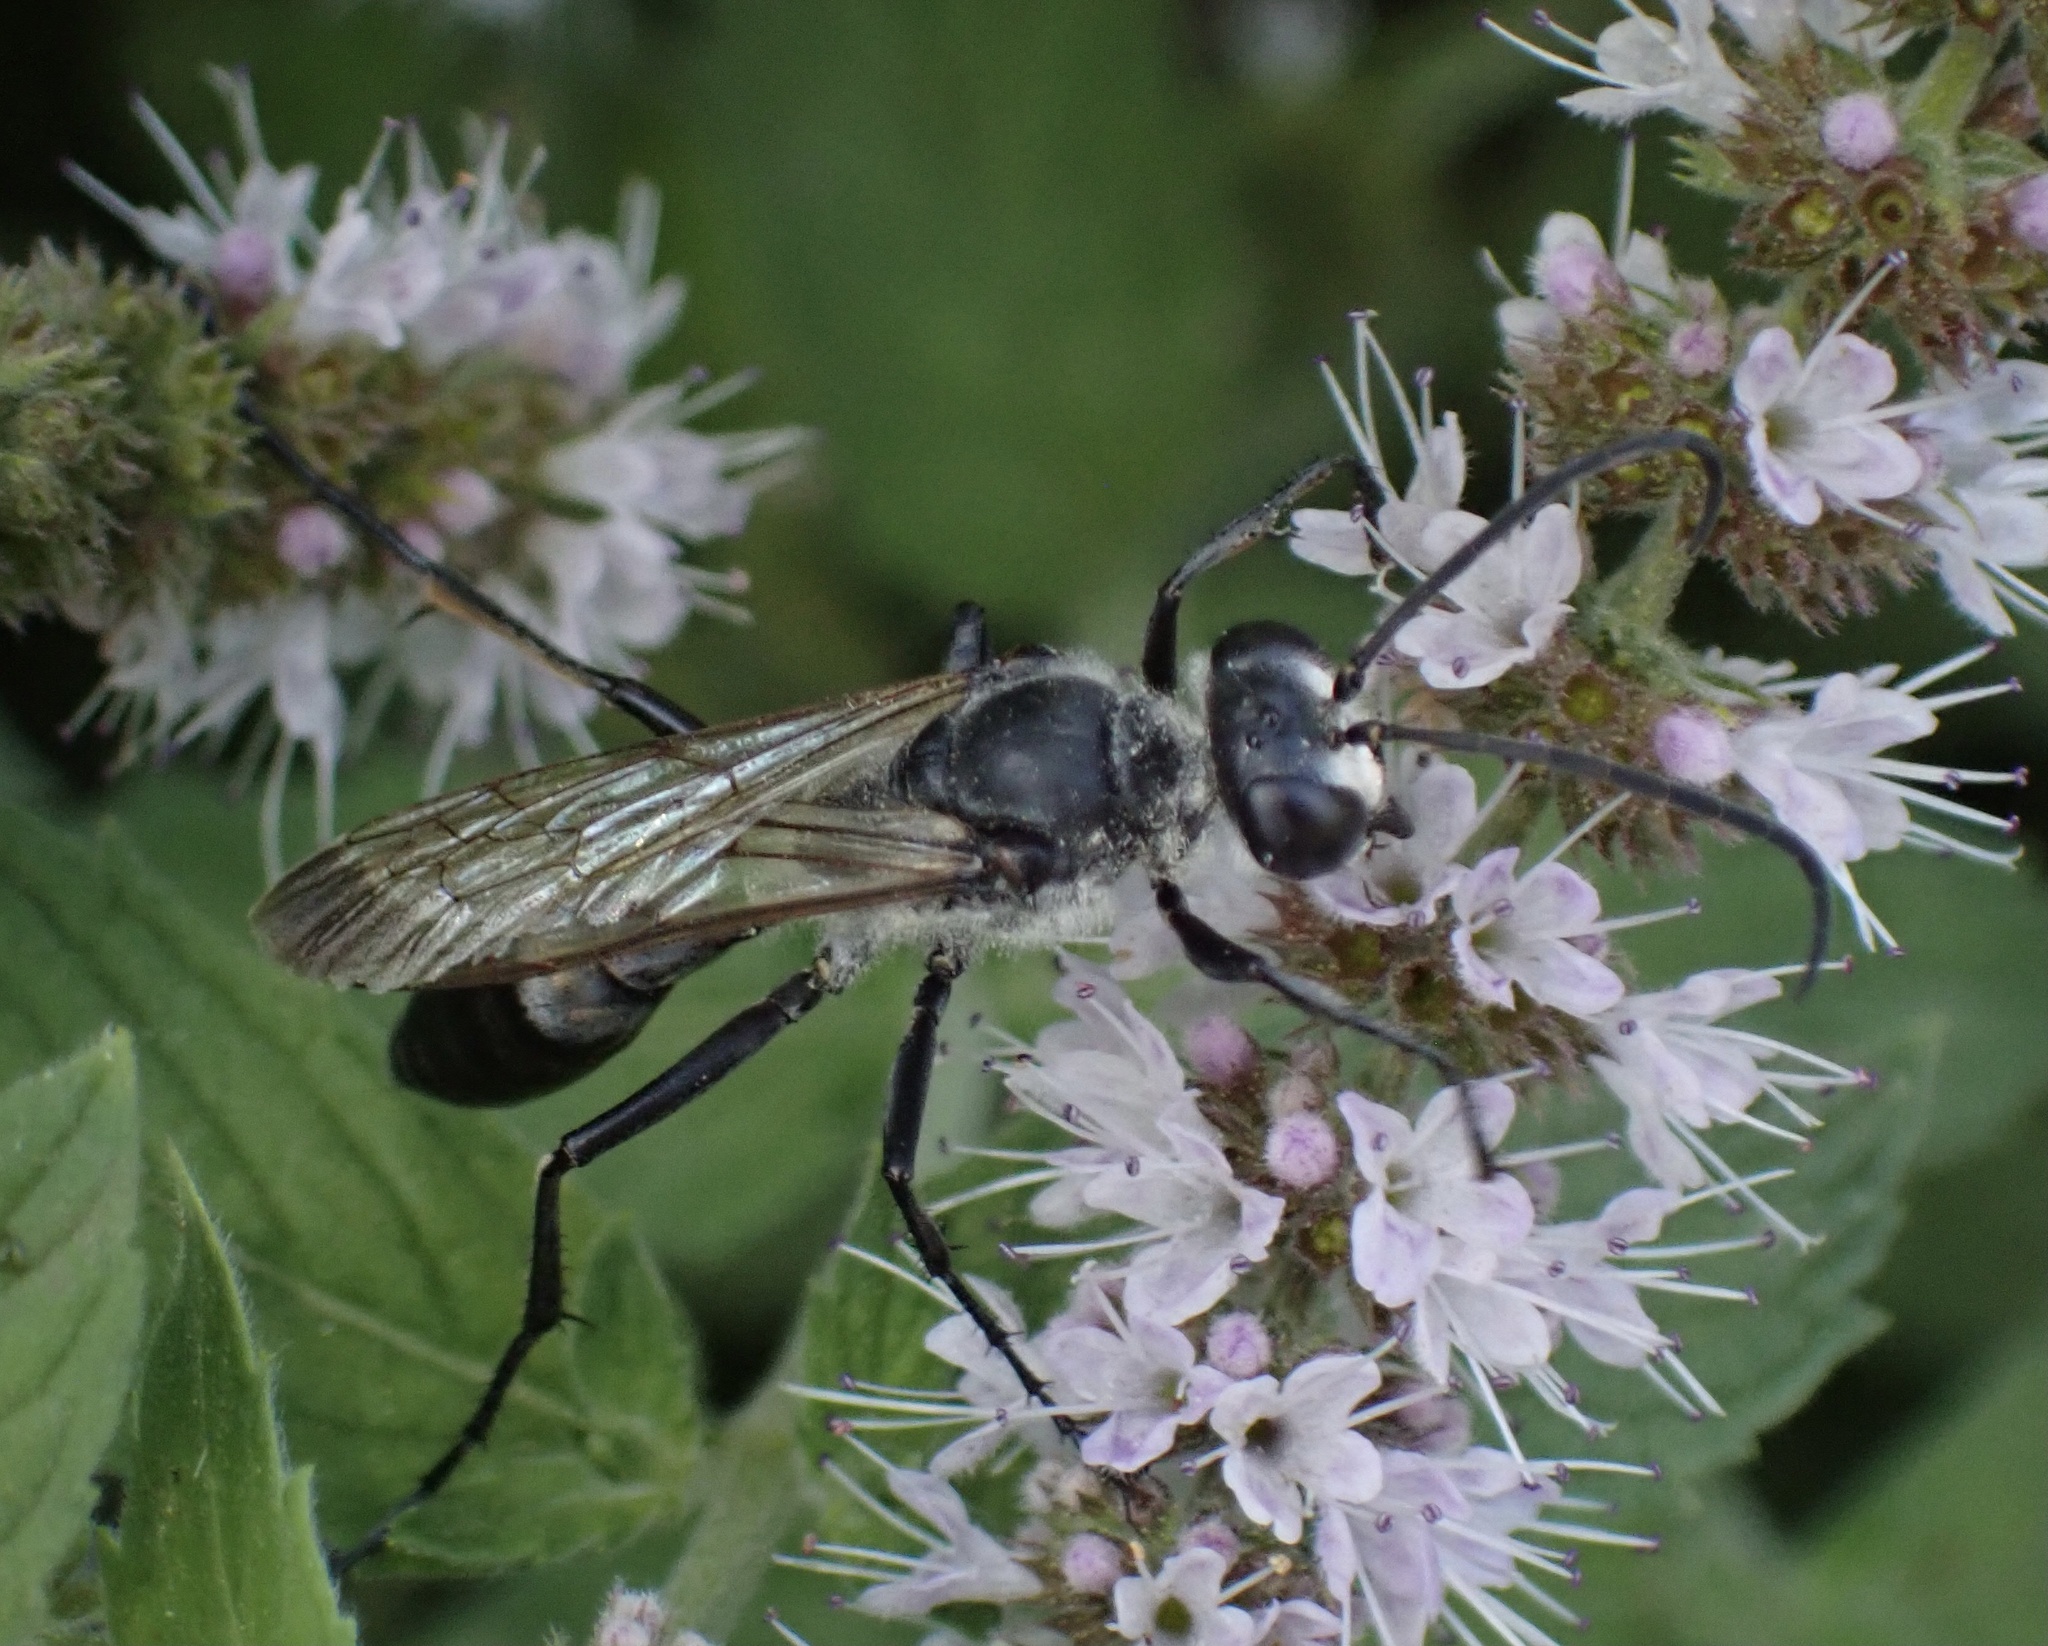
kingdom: Animalia
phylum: Arthropoda
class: Insecta
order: Hymenoptera
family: Sphecidae
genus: Sphex
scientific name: Sphex pruinosus
